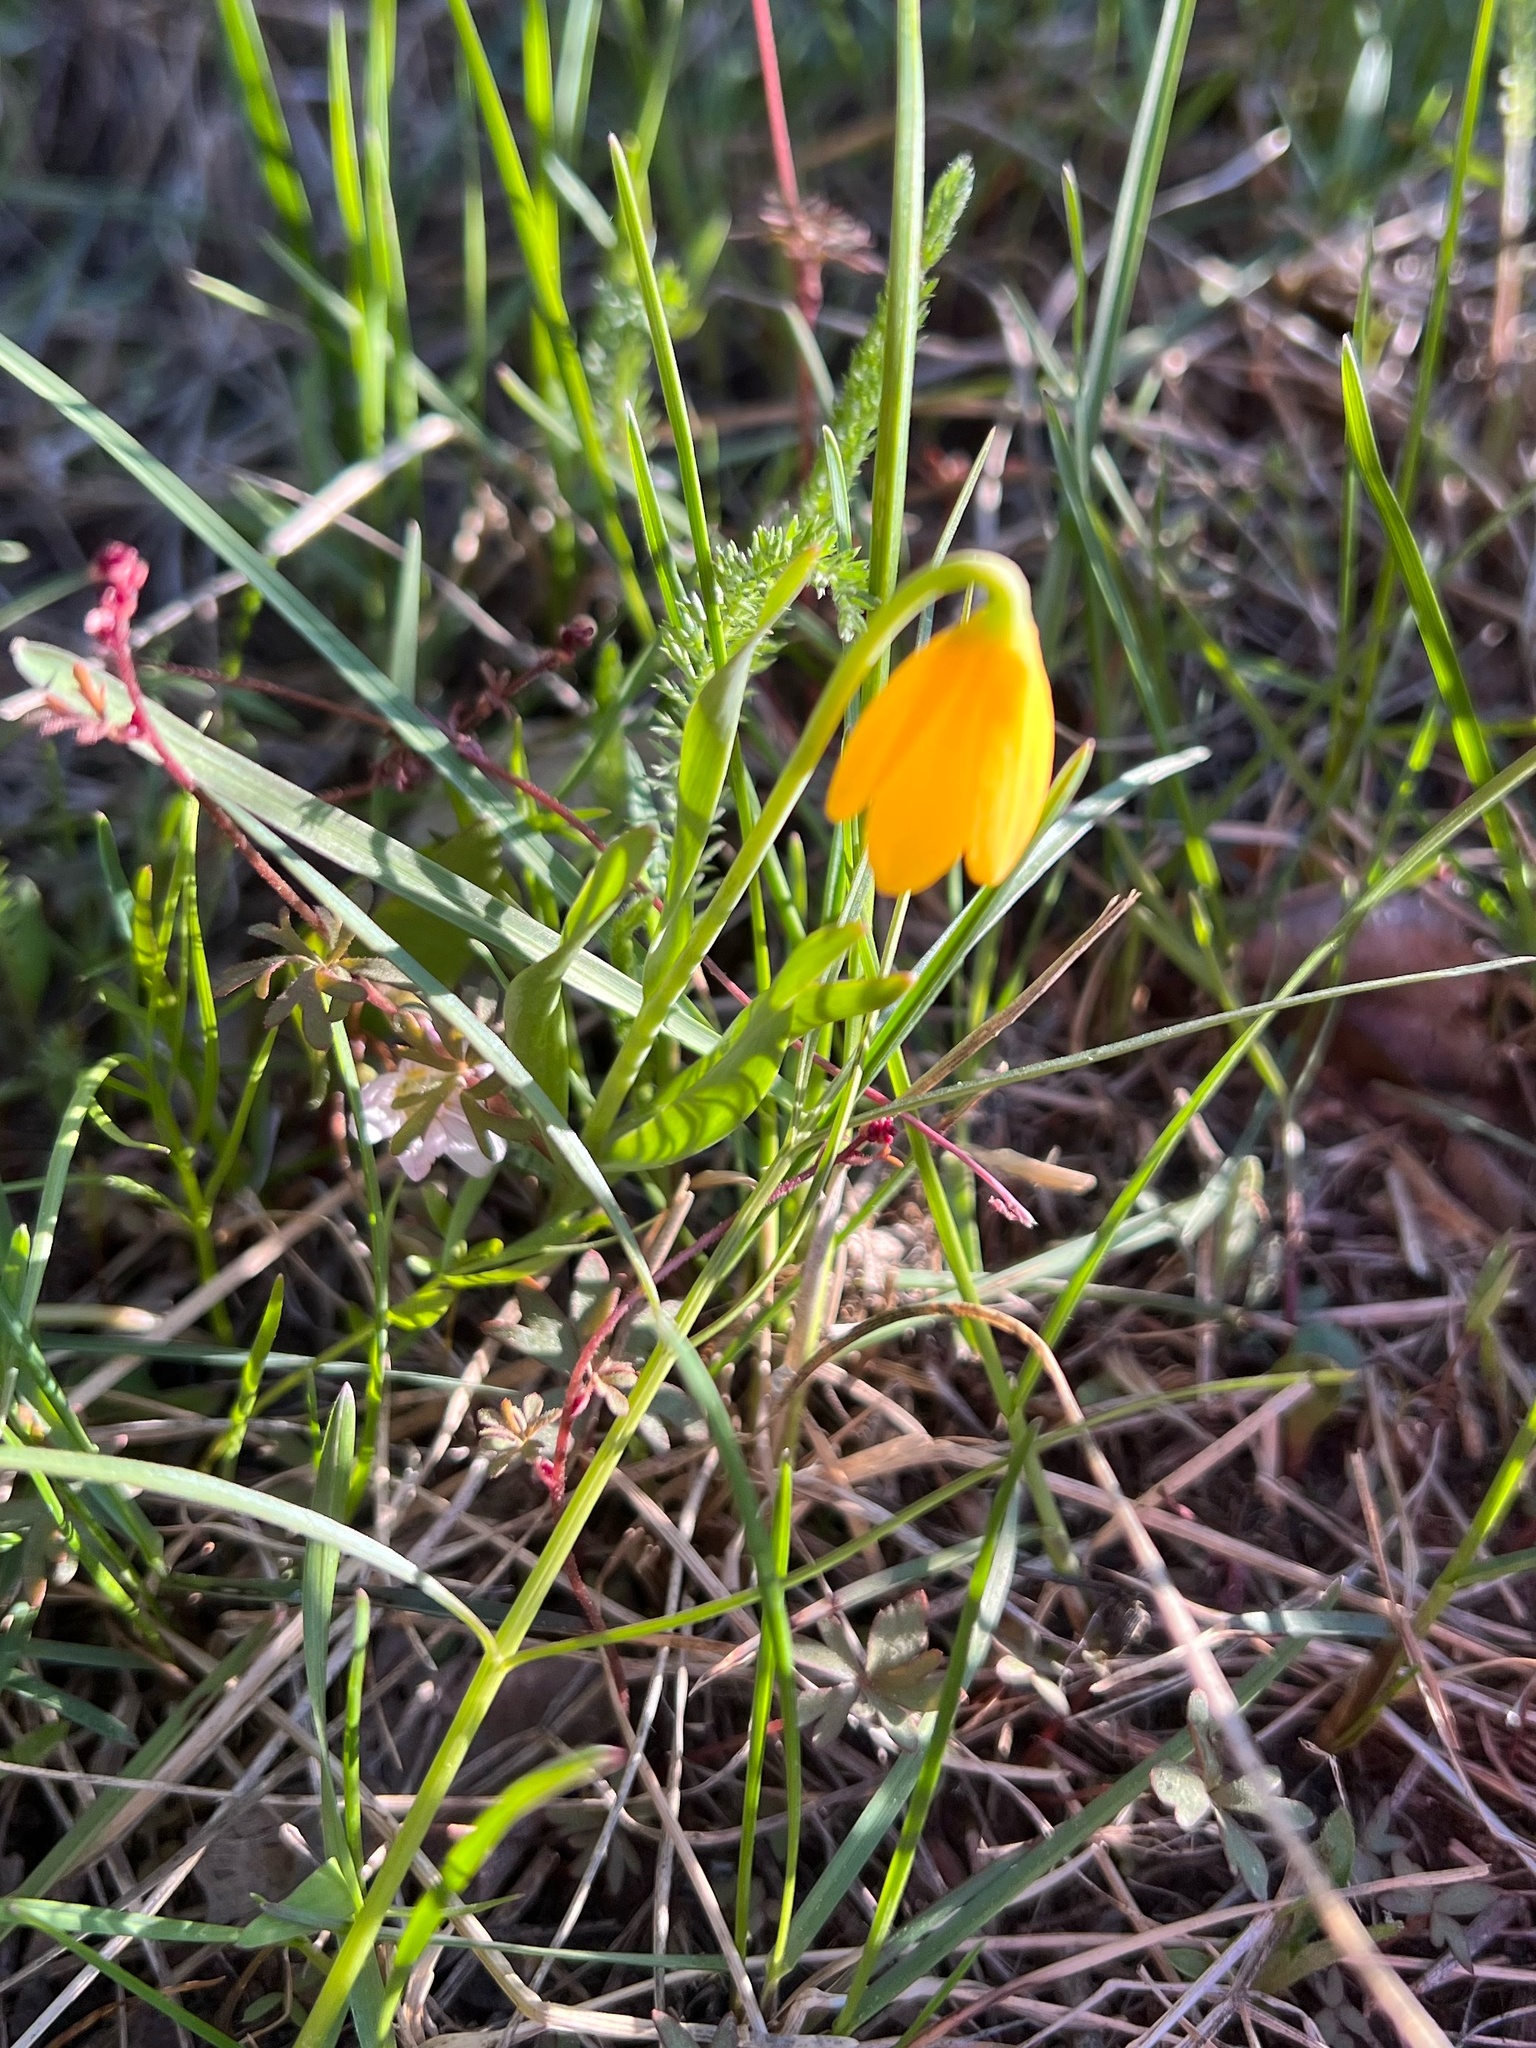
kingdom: Plantae
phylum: Tracheophyta
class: Liliopsida
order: Liliales
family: Liliaceae
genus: Fritillaria
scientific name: Fritillaria pudica
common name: Yellow fritillary
